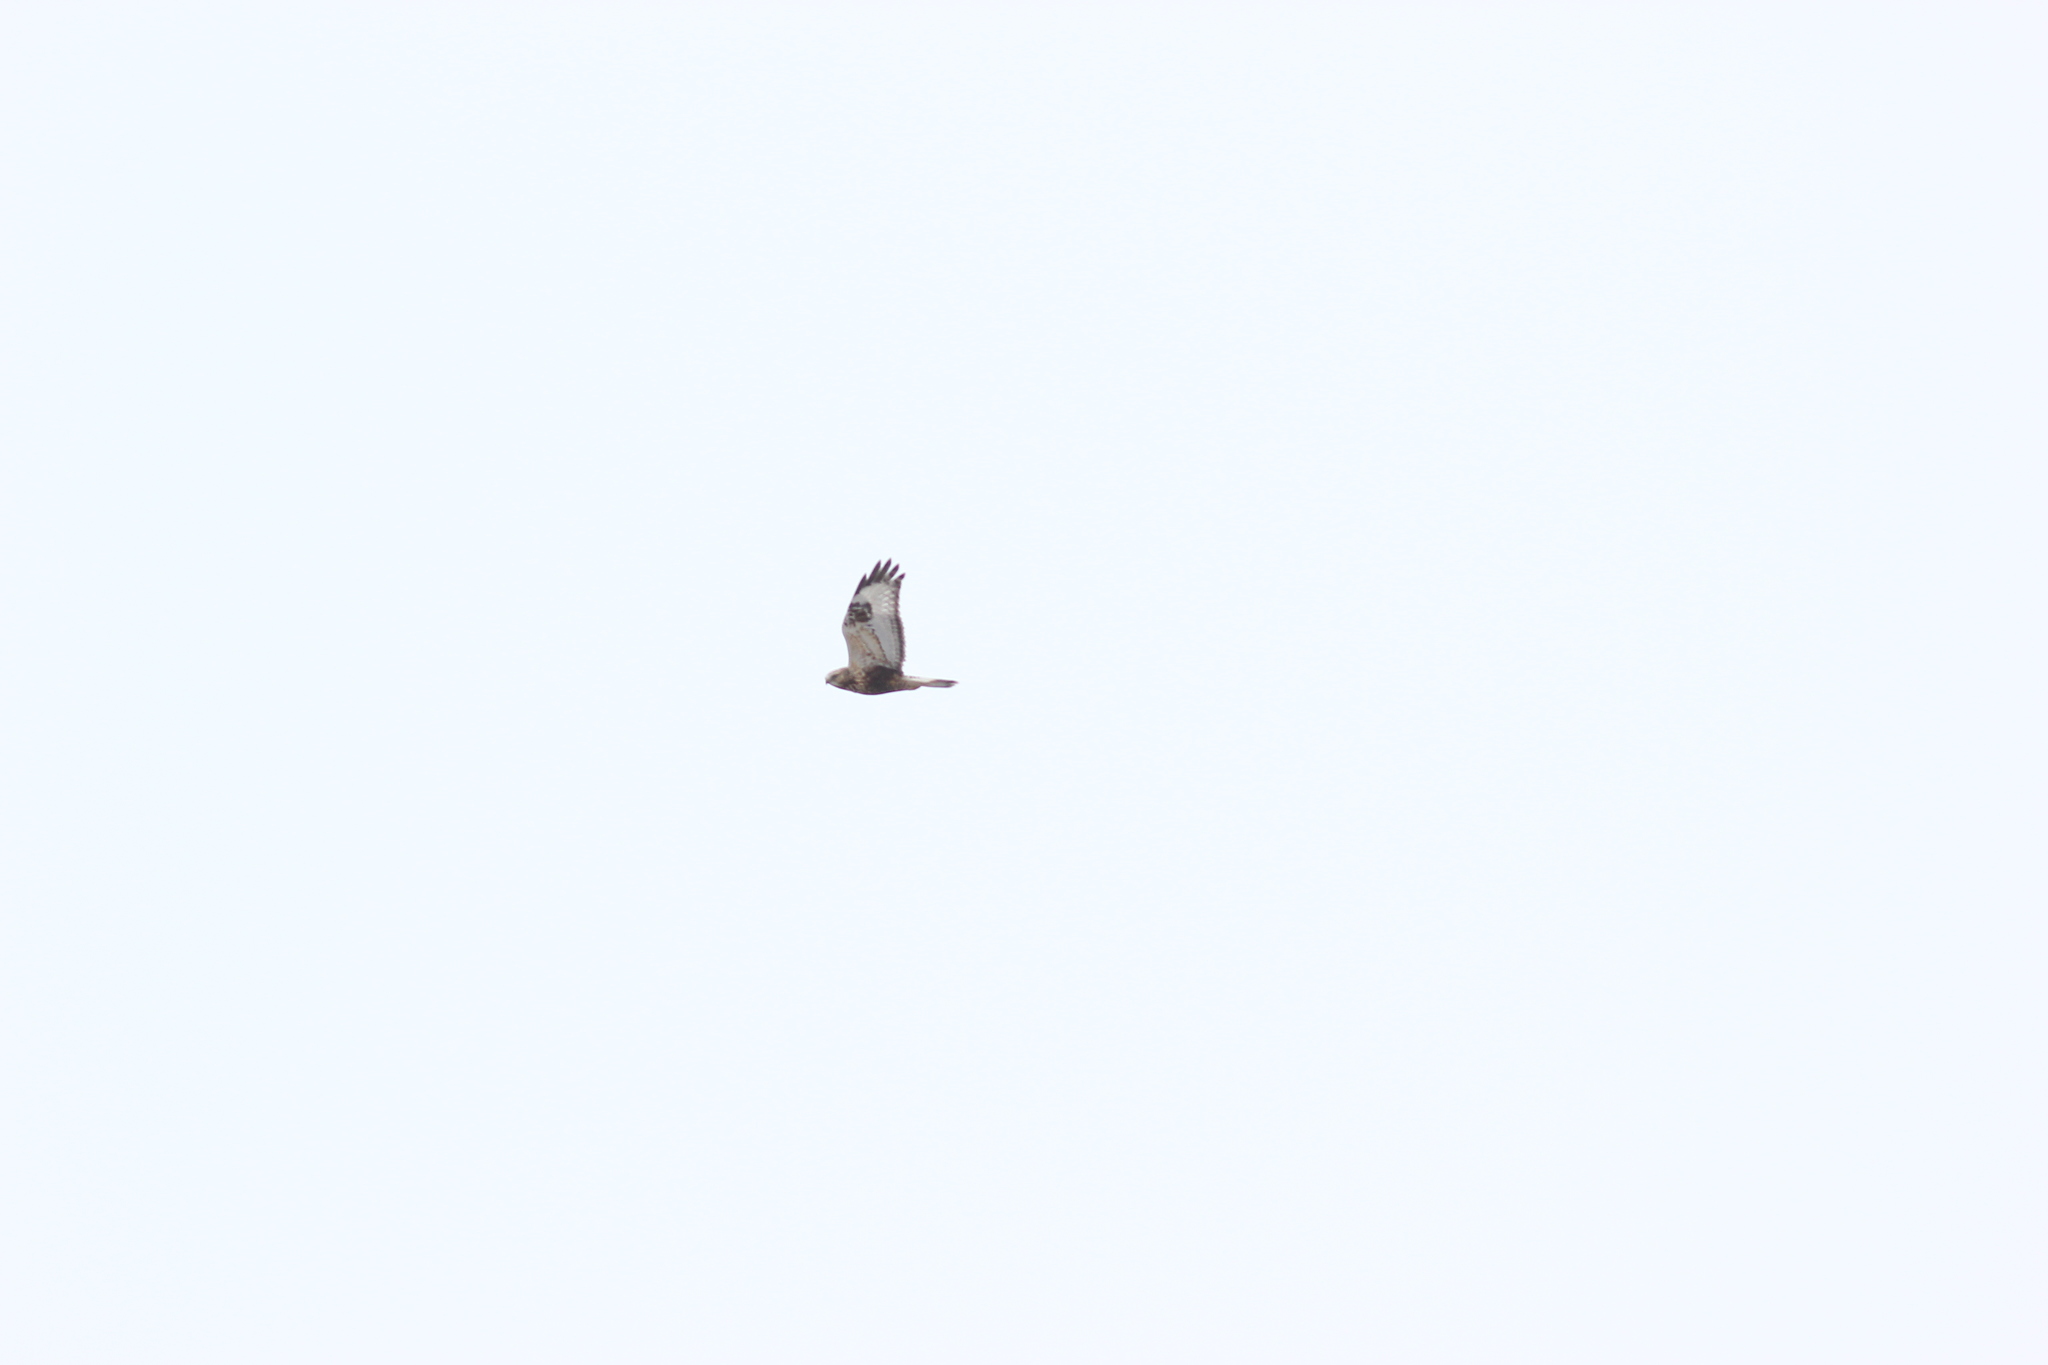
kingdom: Animalia
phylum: Chordata
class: Aves
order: Accipitriformes
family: Accipitridae
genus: Buteo
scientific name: Buteo lagopus
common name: Rough-legged buzzard
